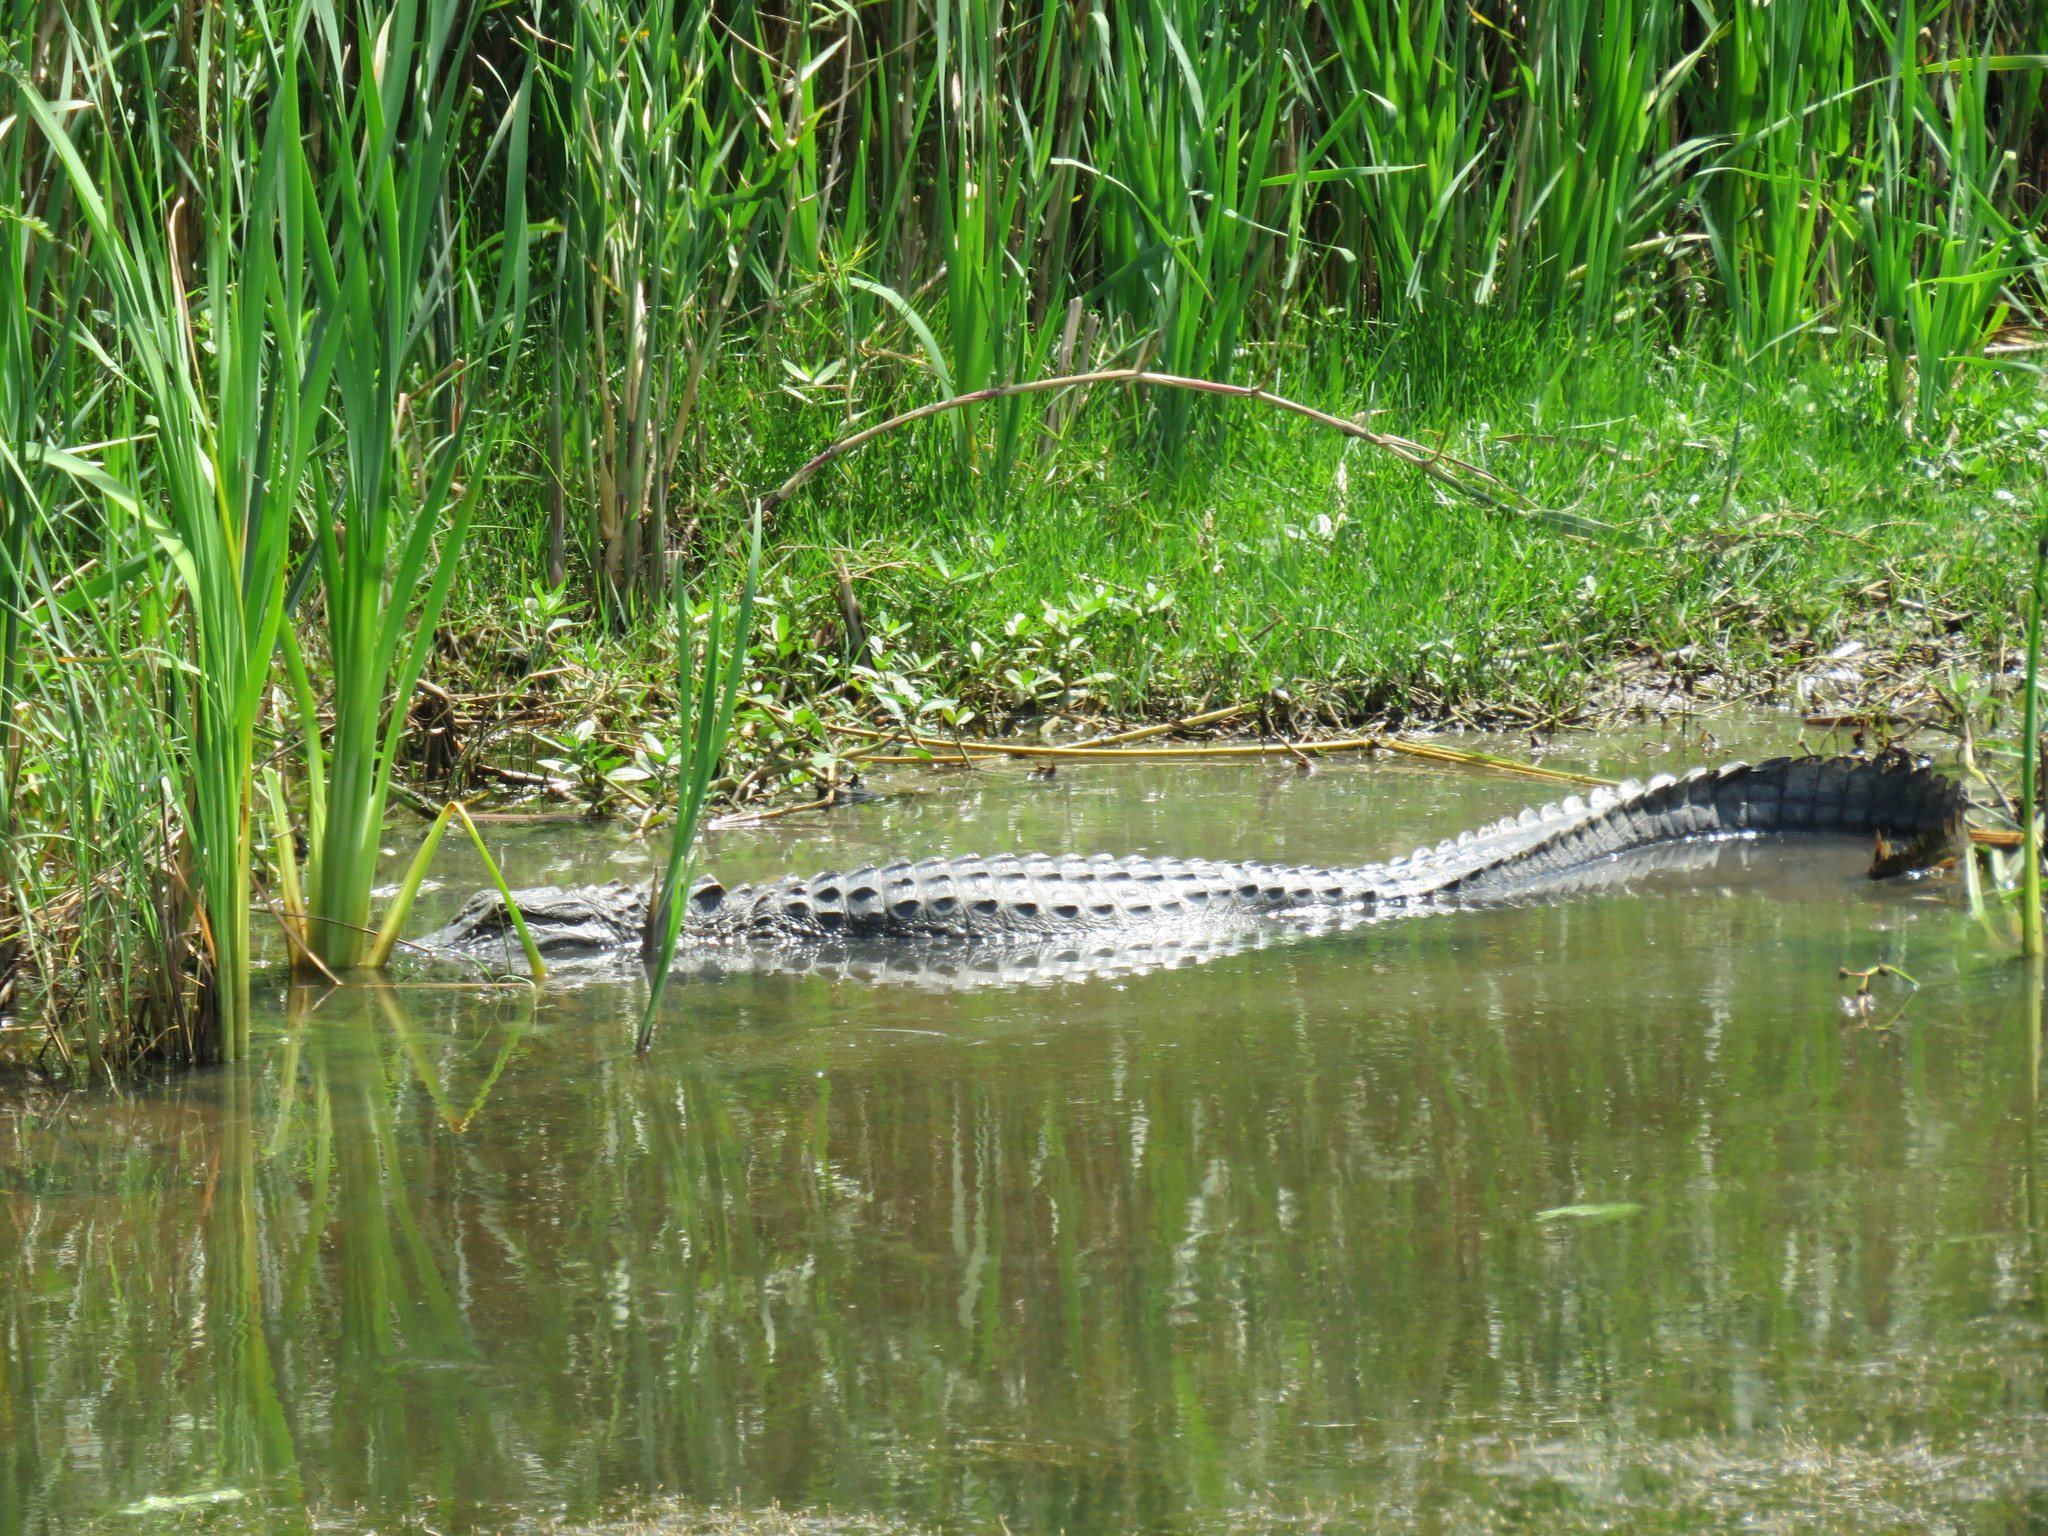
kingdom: Animalia
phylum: Chordata
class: Crocodylia
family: Alligatoridae
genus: Alligator
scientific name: Alligator mississippiensis
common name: American alligator
